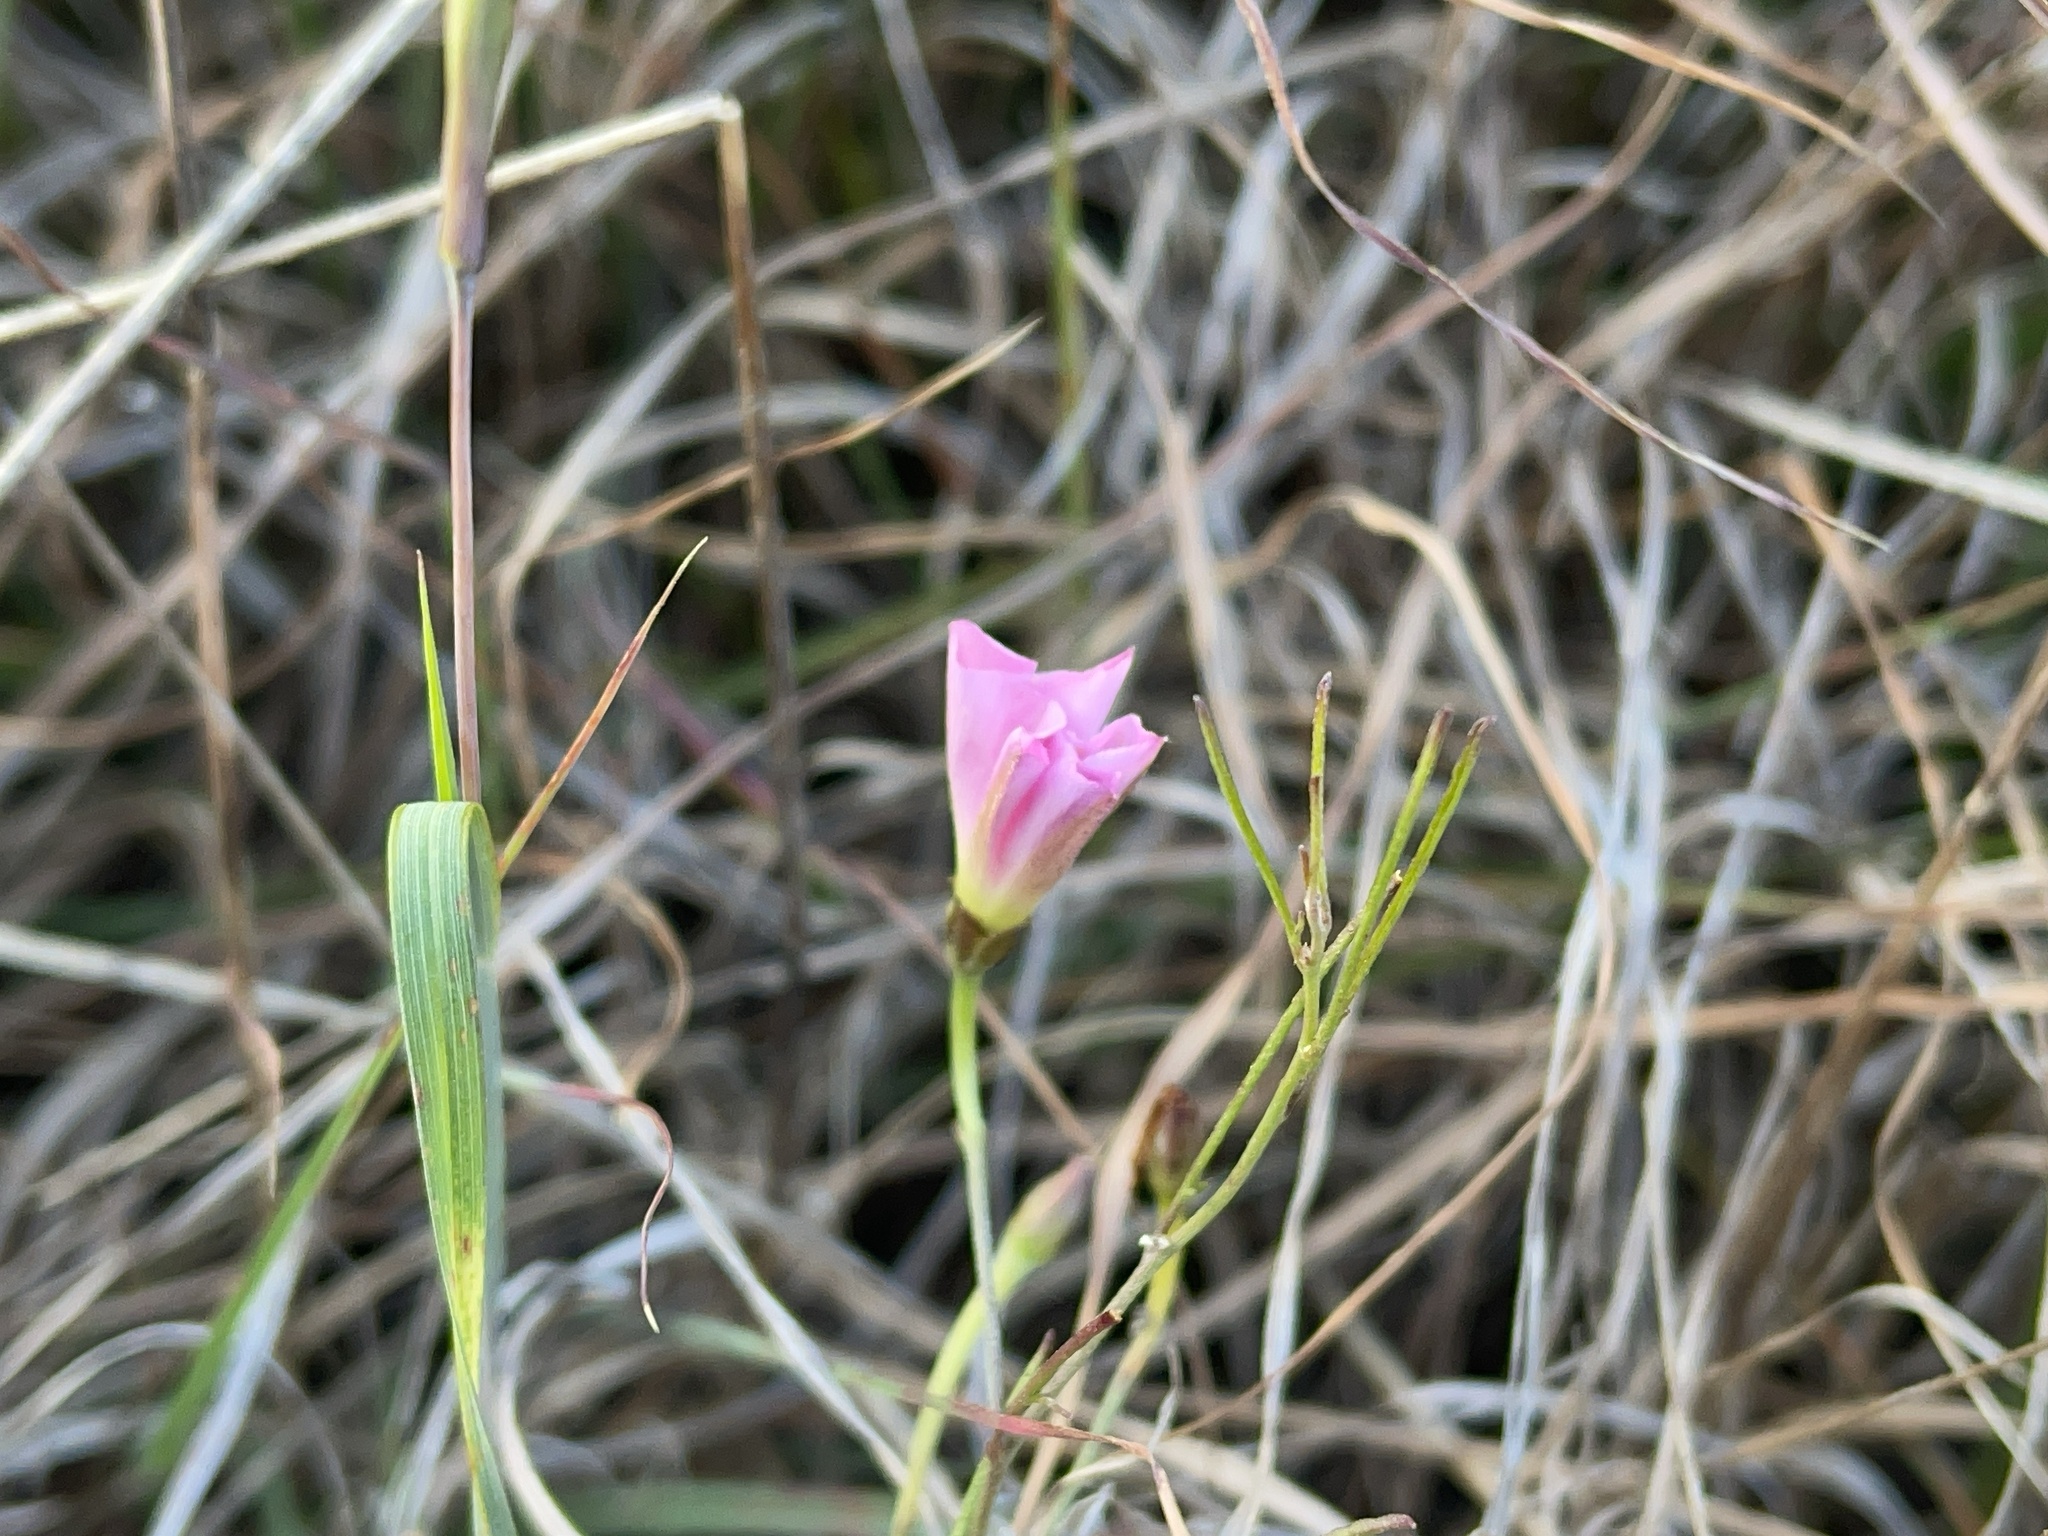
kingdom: Plantae
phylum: Tracheophyta
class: Magnoliopsida
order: Solanales
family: Convolvulaceae
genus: Convolvulus
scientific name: Convolvulus angustissimus
